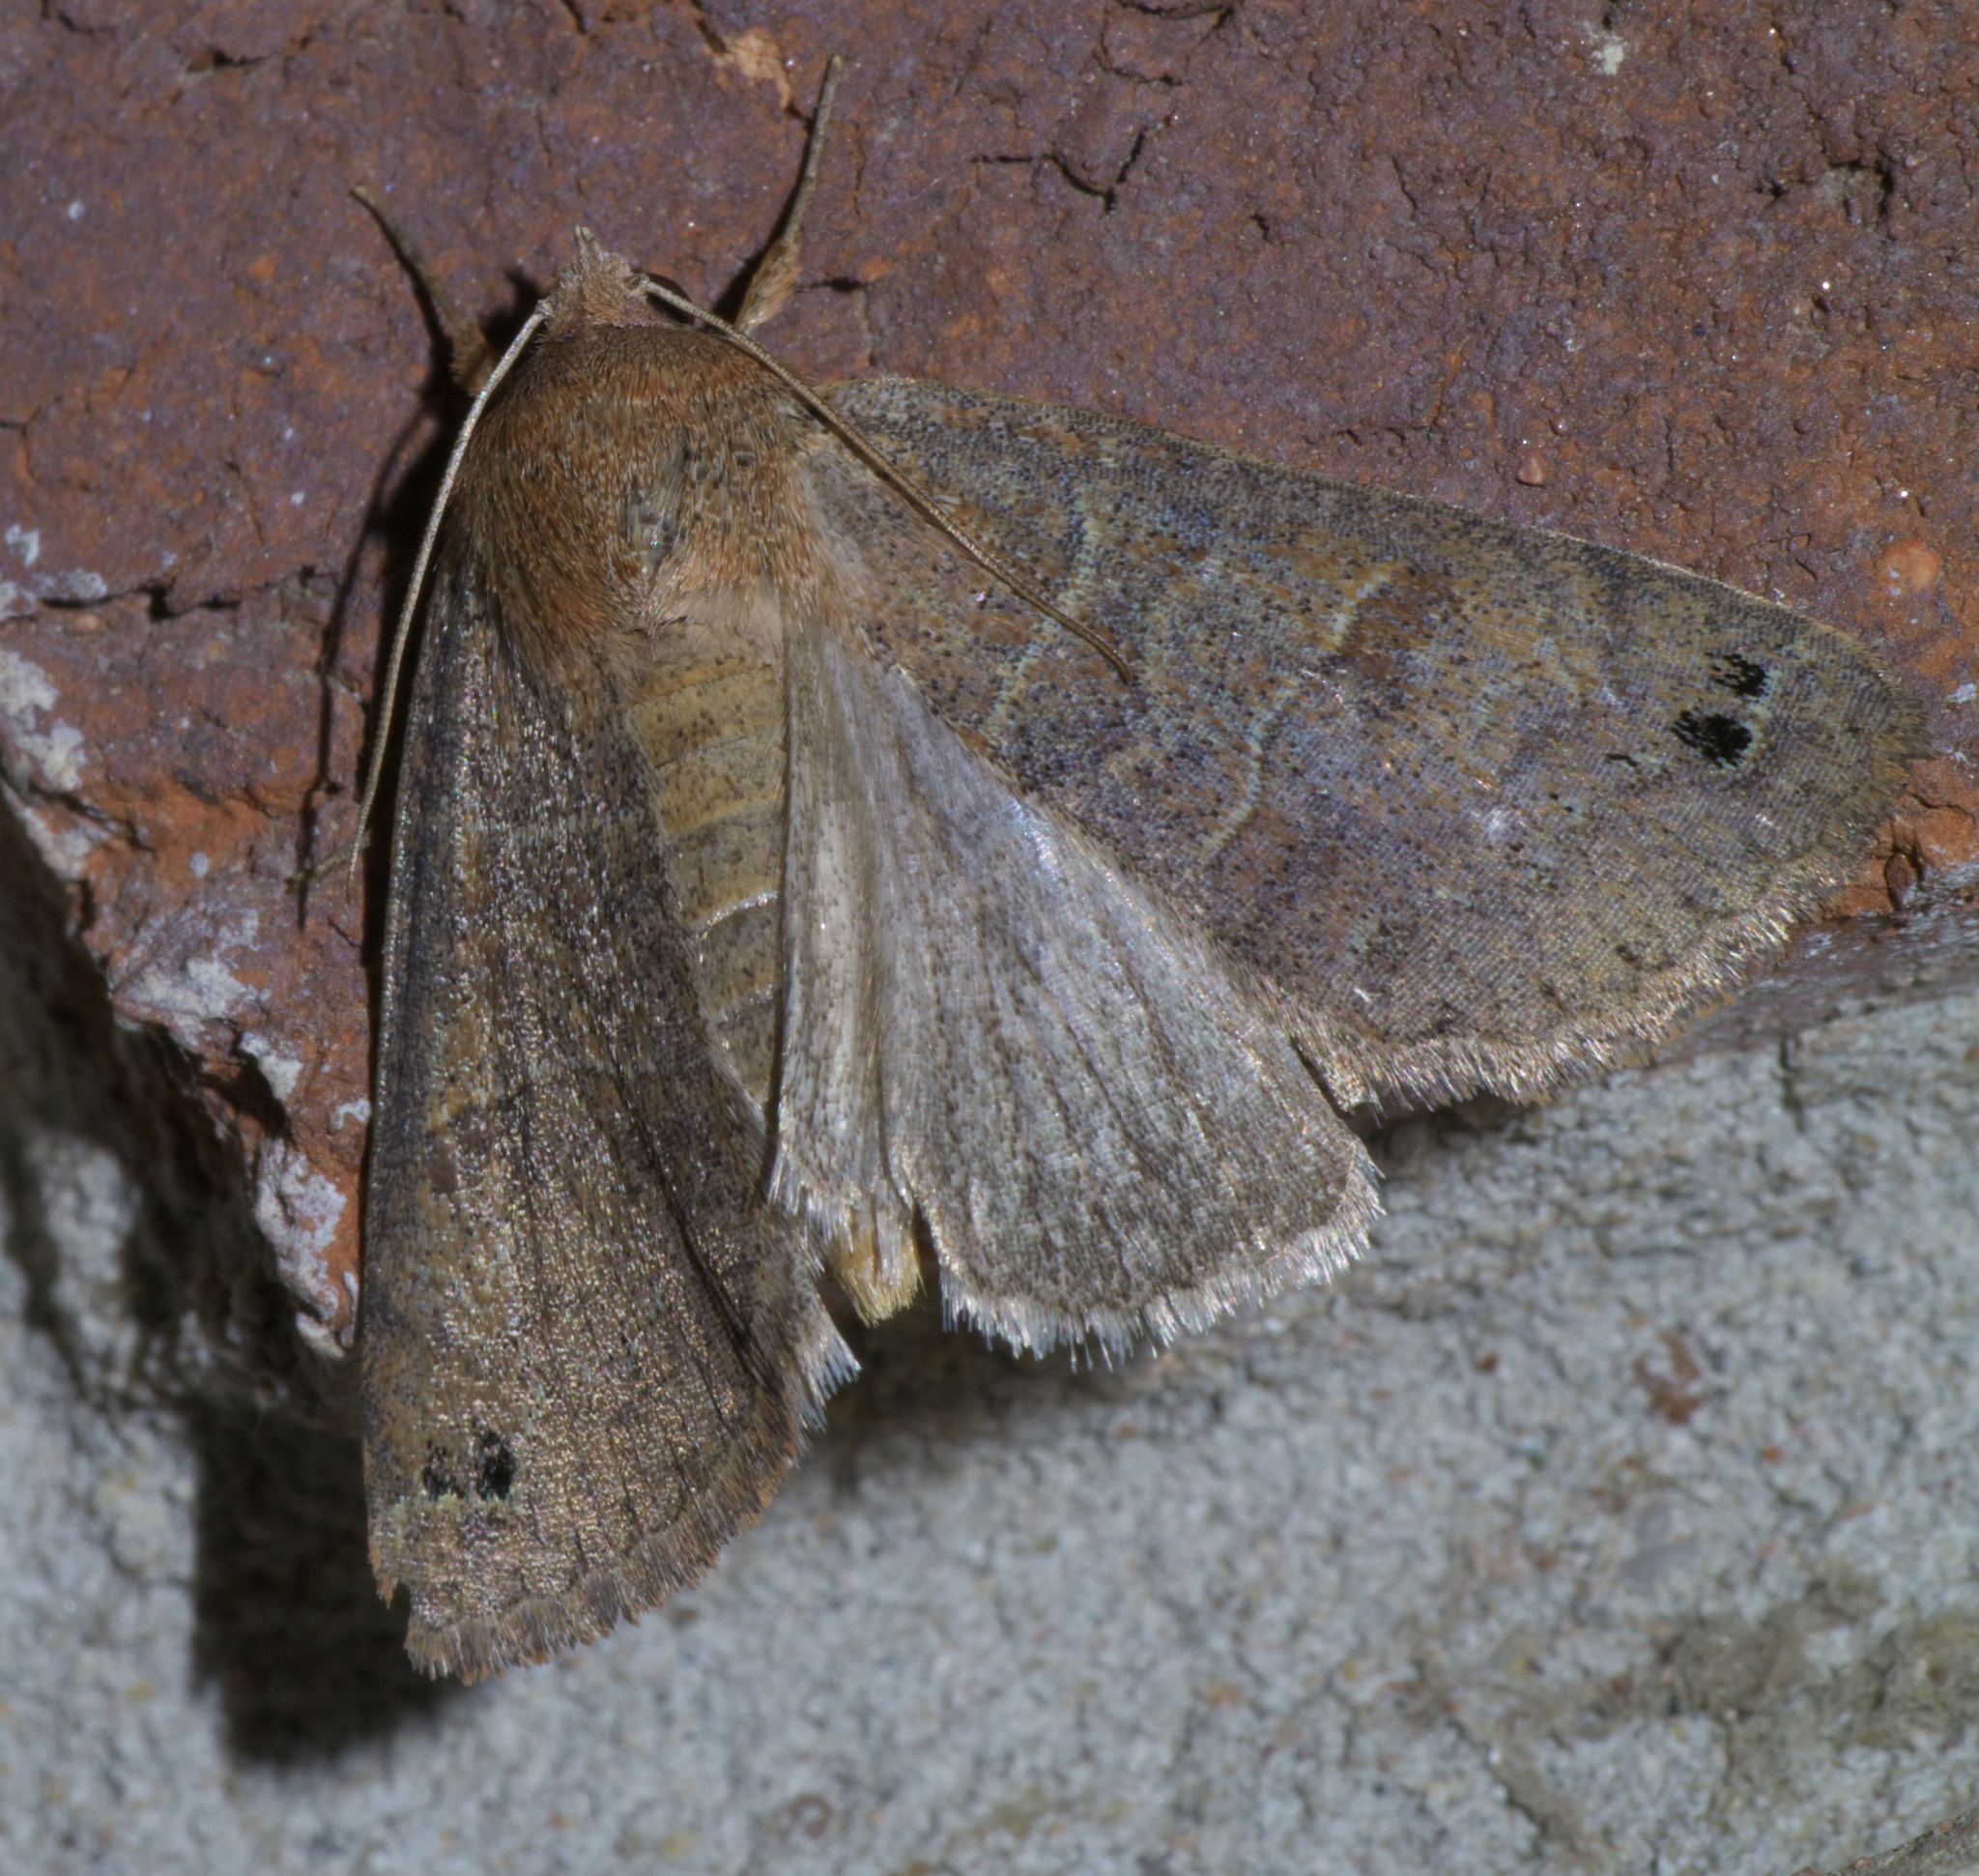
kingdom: Animalia
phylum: Arthropoda
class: Insecta
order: Lepidoptera
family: Erebidae
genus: Cissusa
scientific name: Cissusa spadix
